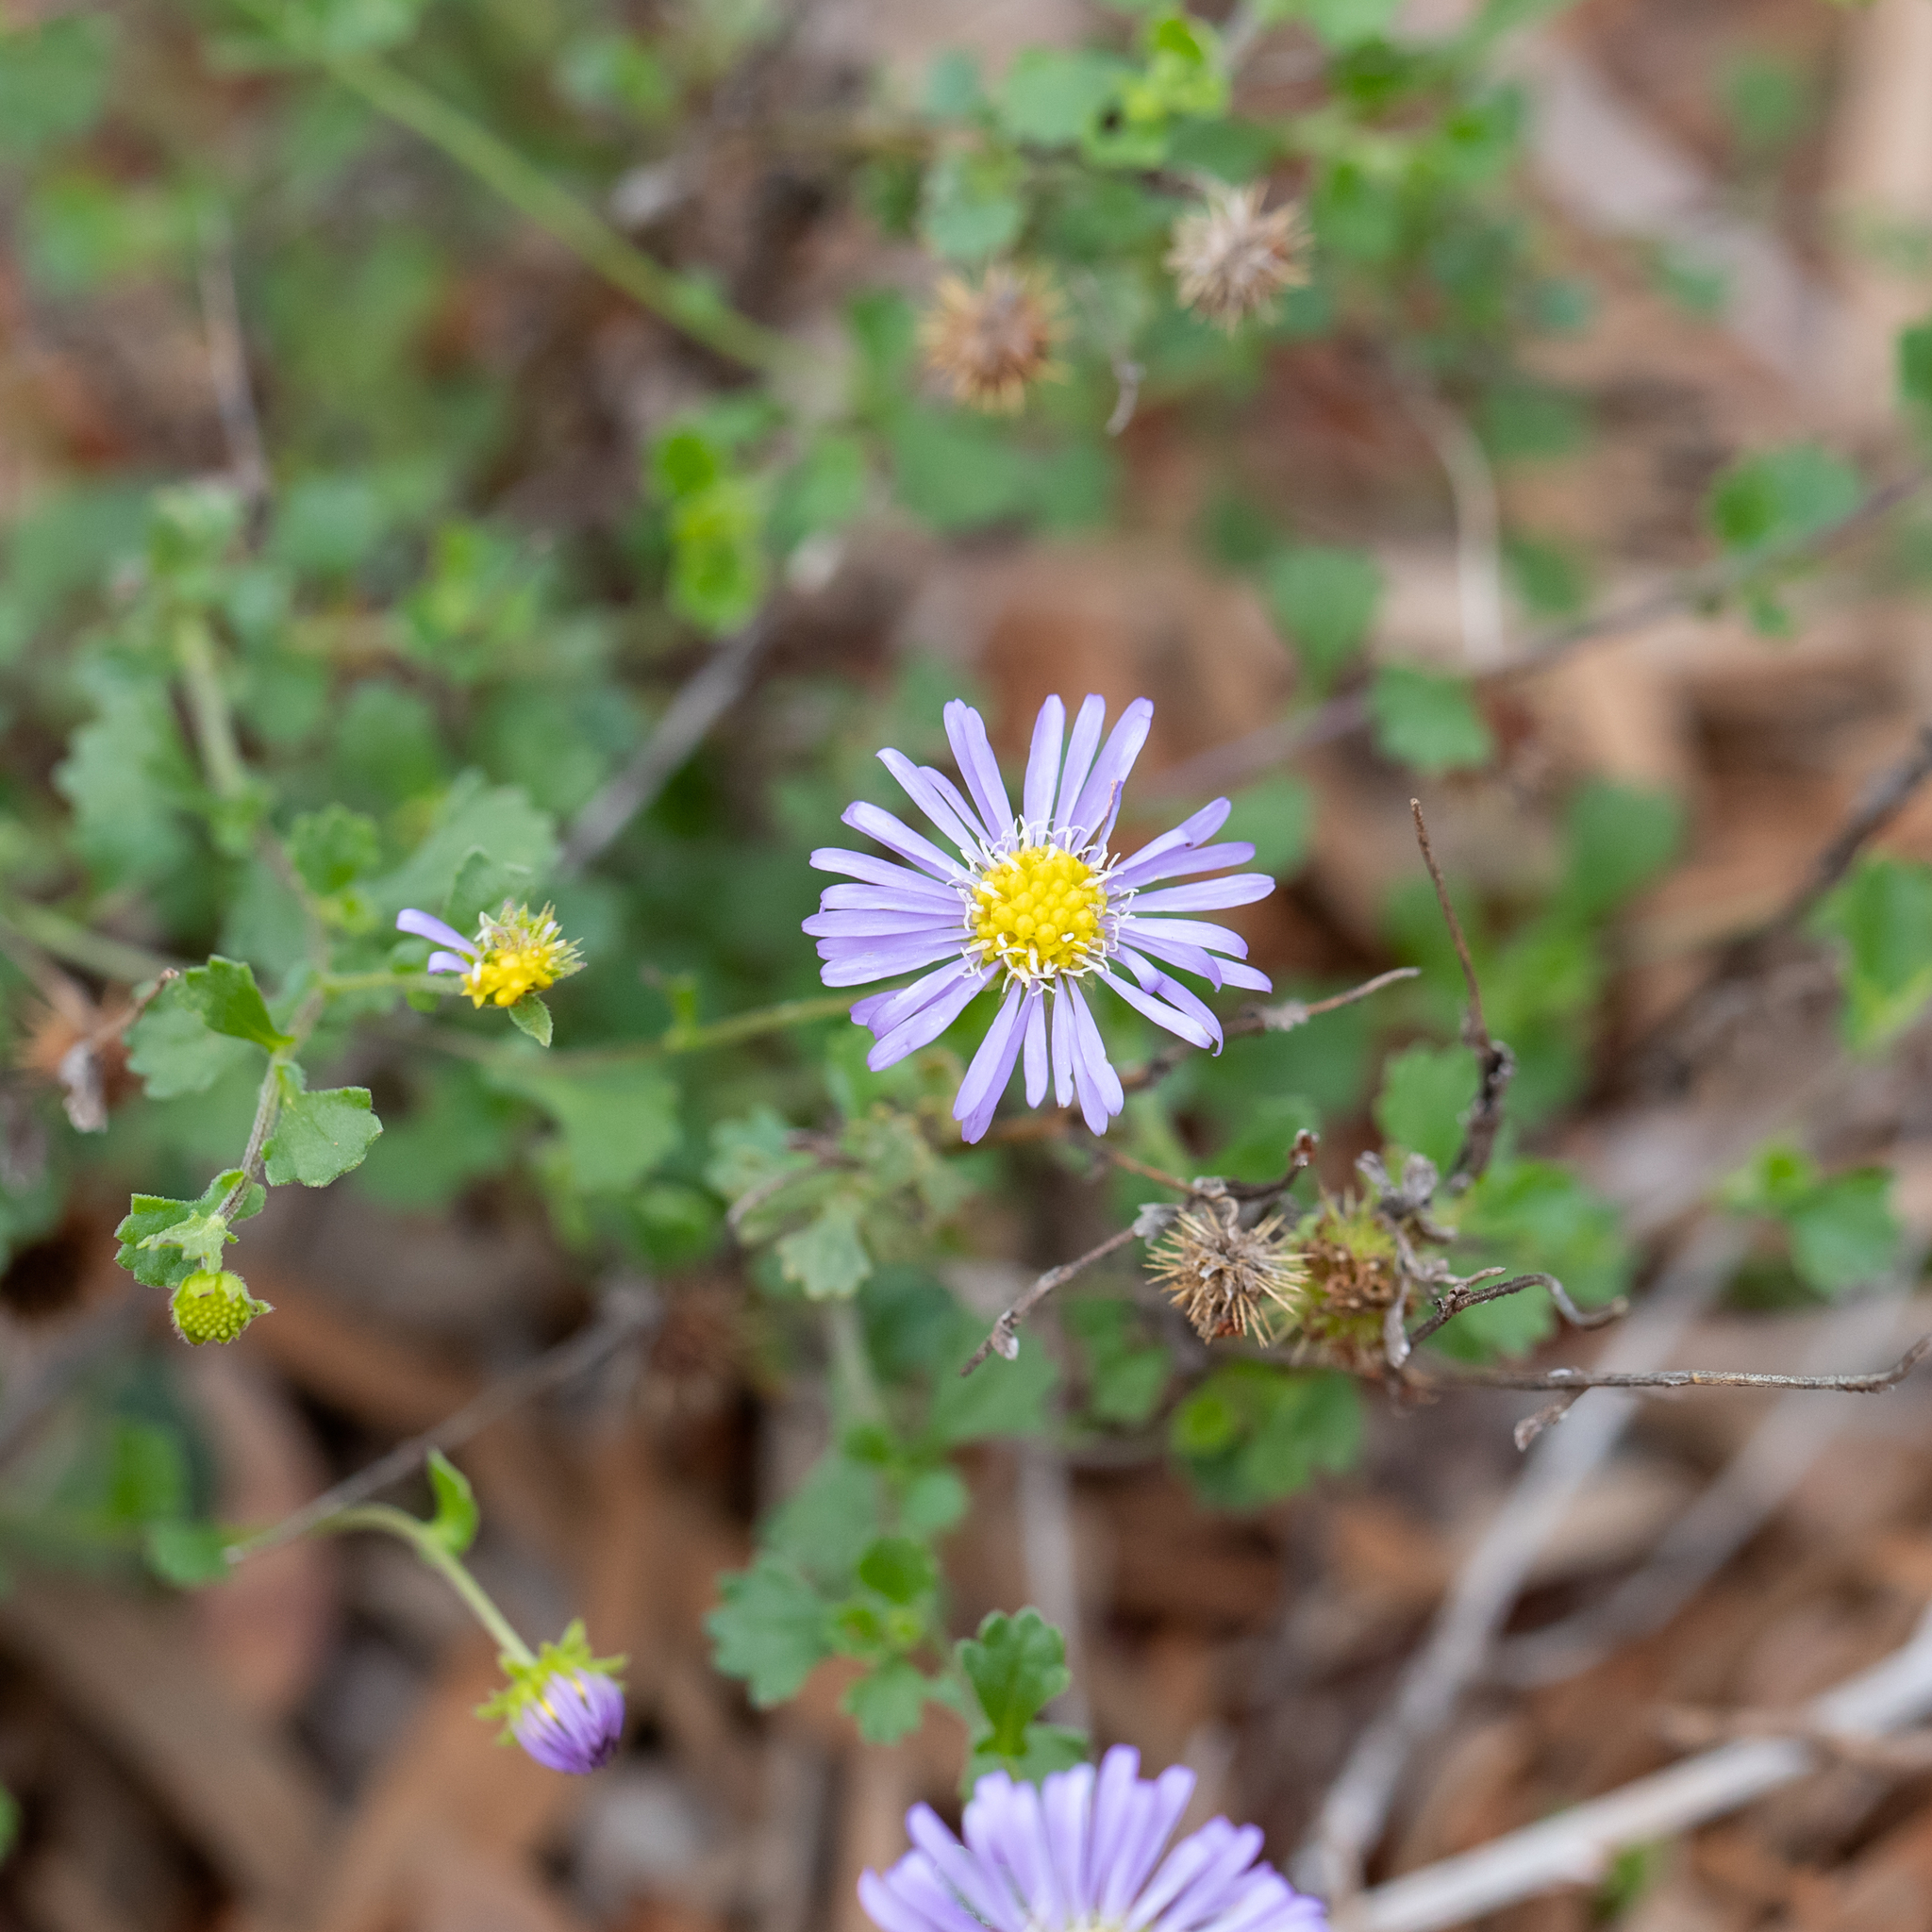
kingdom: Plantae
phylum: Tracheophyta
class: Magnoliopsida
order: Asterales
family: Asteraceae
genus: Calotis
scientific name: Calotis cuneifolia
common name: Bur-daisy
